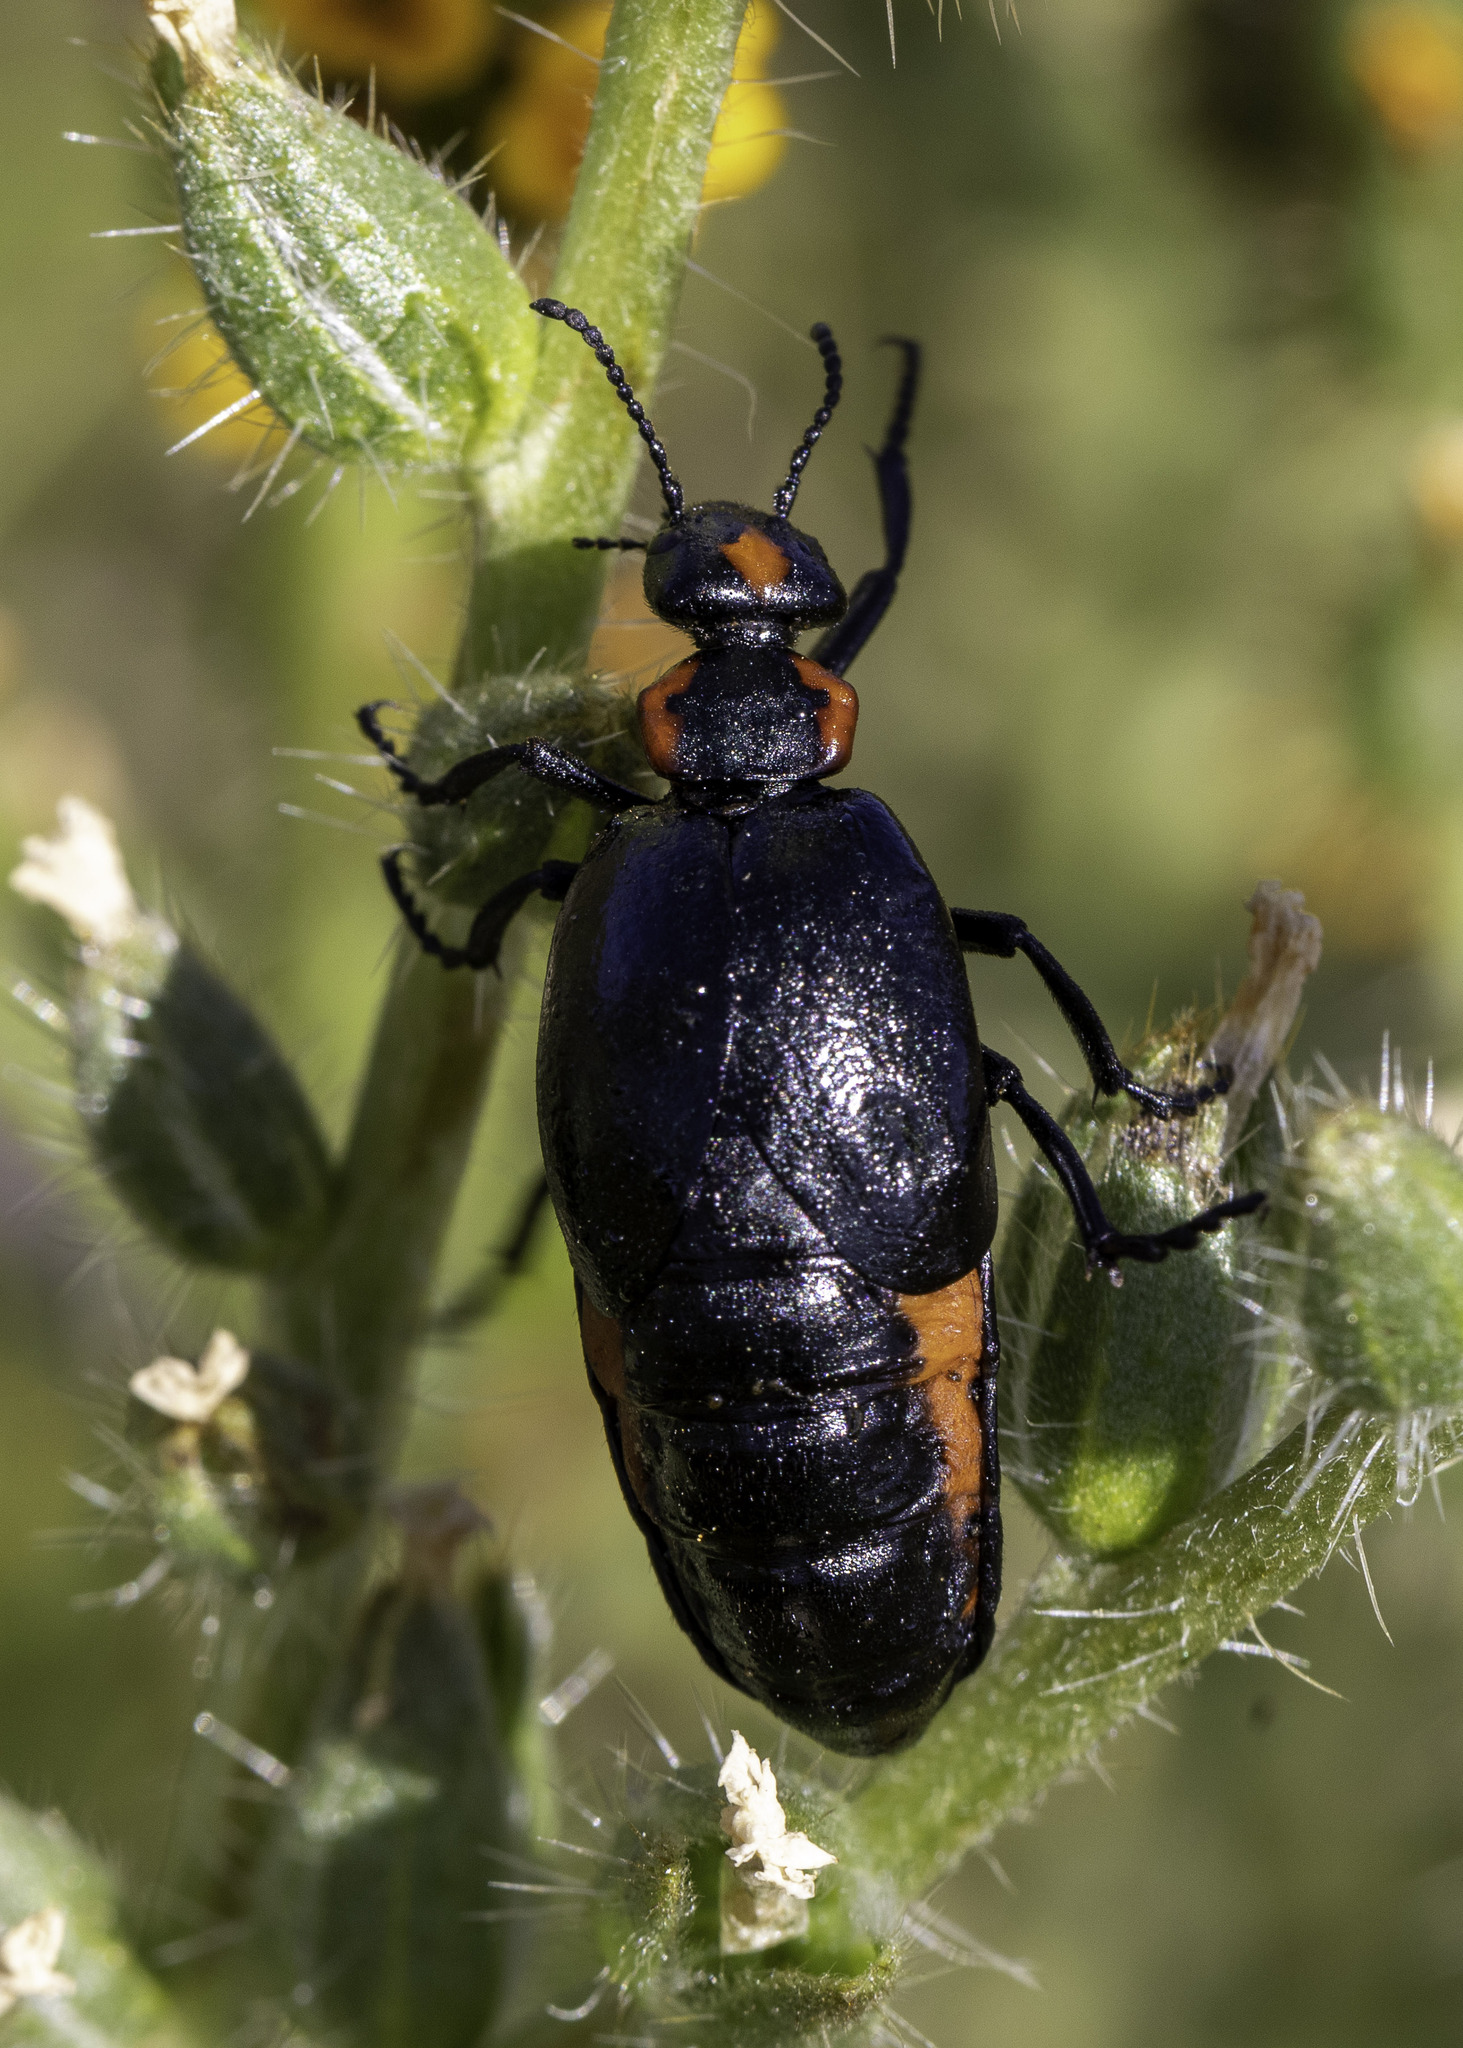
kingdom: Animalia
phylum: Arthropoda
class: Insecta
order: Coleoptera
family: Meloidae
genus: Lytta
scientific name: Lytta sublaevis
